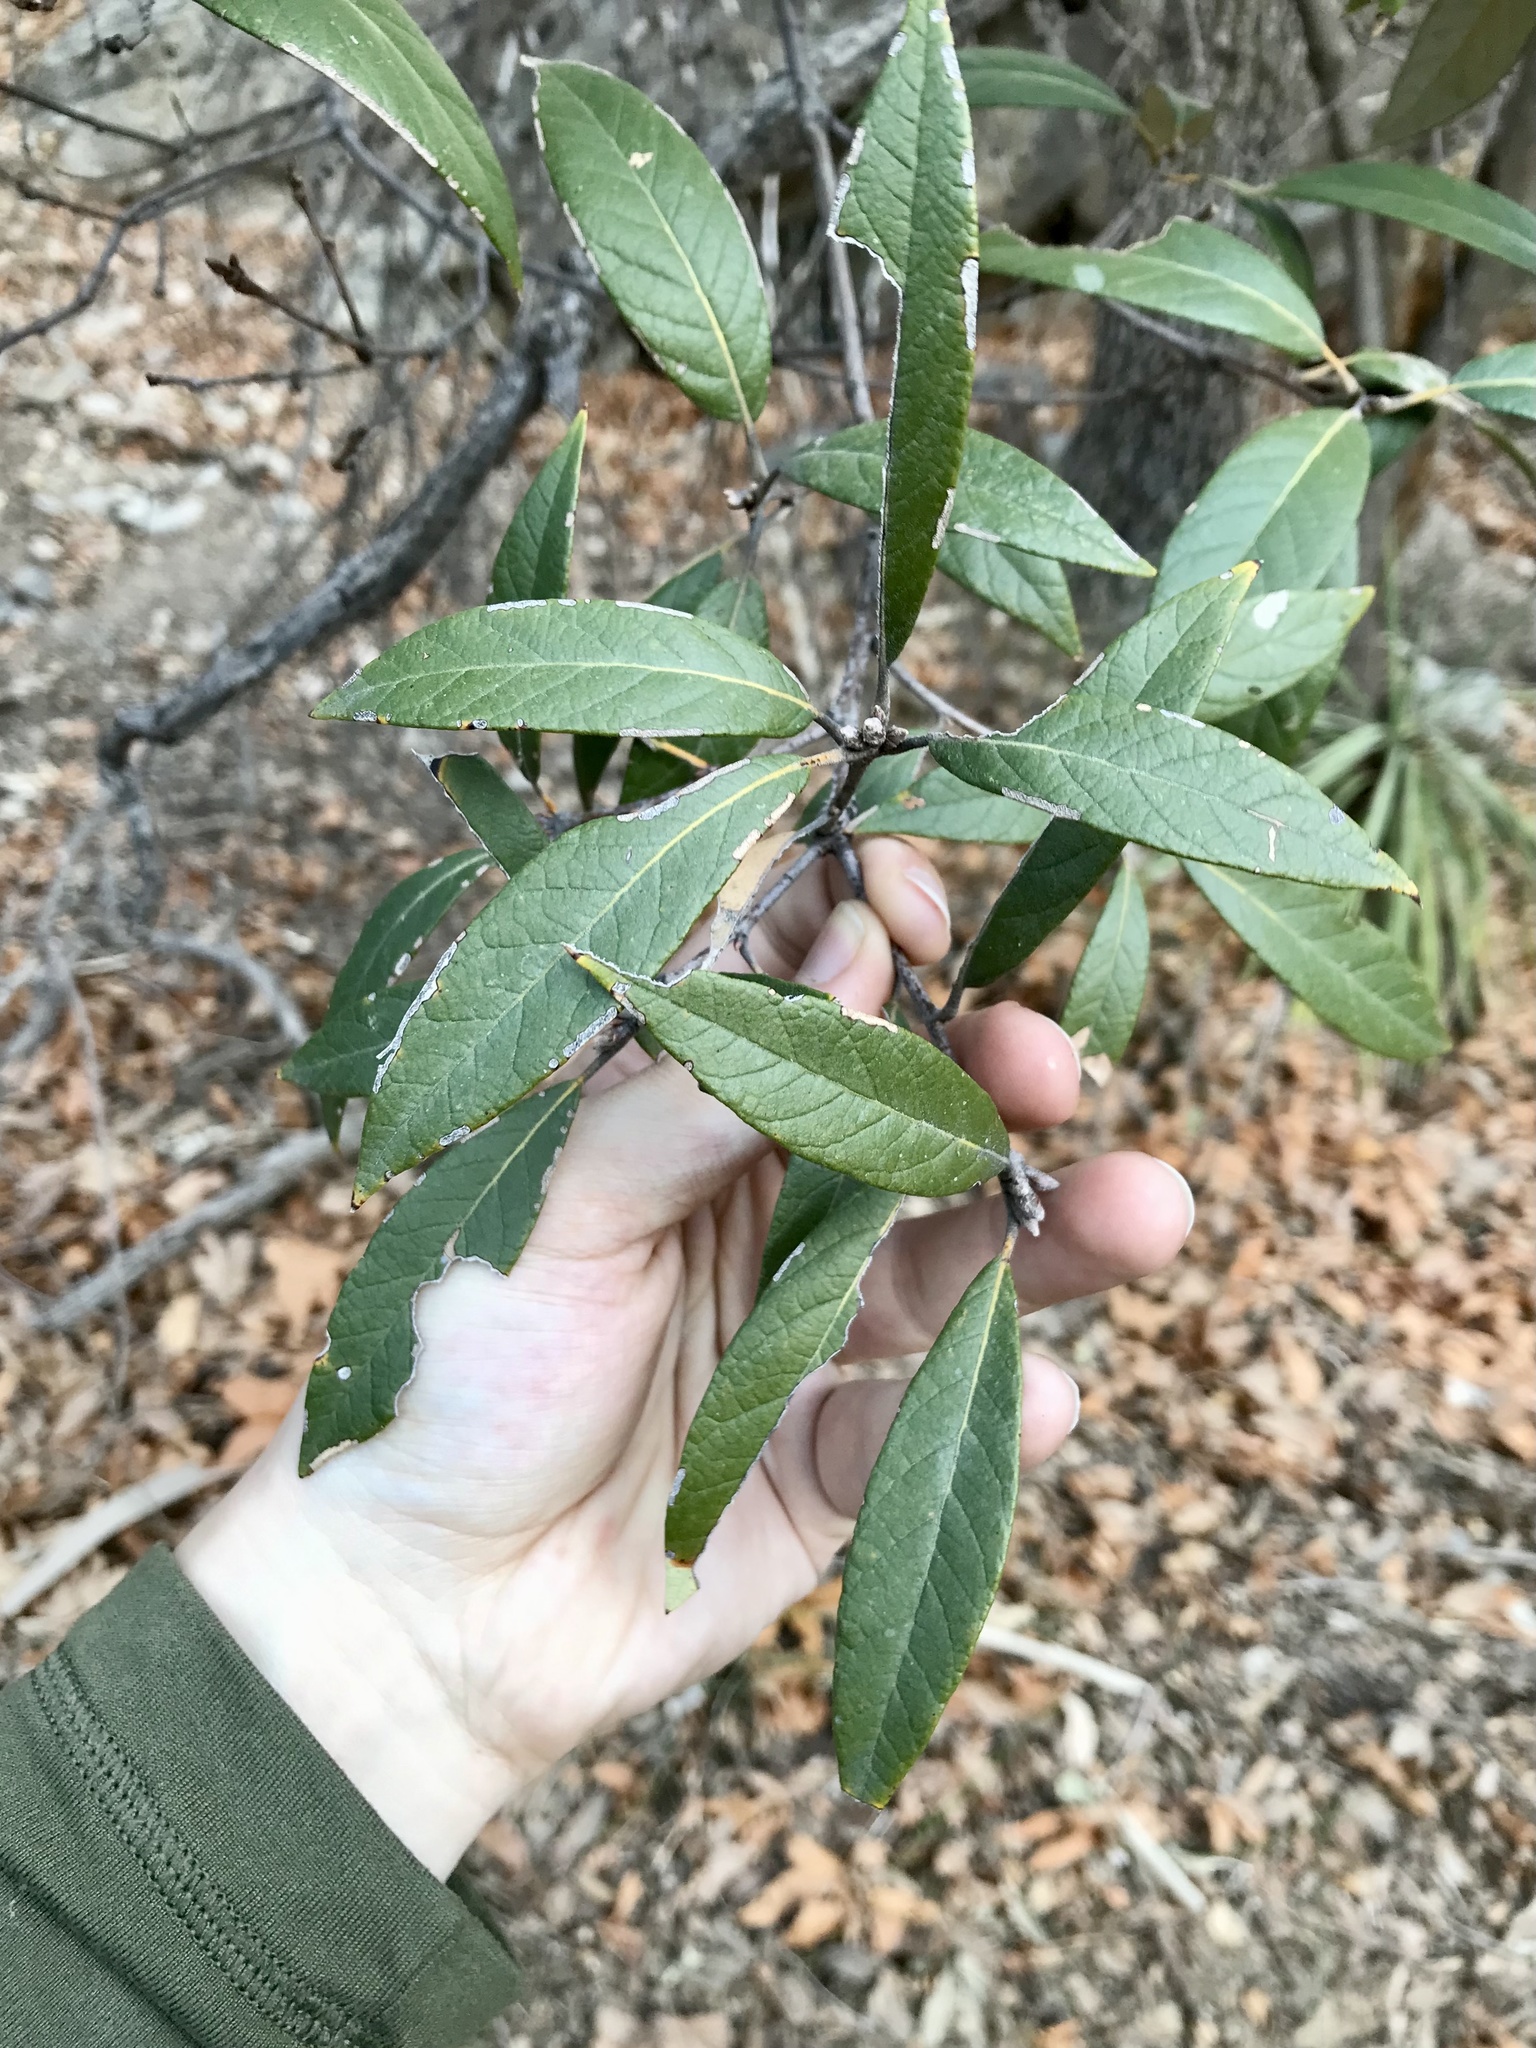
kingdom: Plantae
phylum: Tracheophyta
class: Magnoliopsida
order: Fagales
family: Fagaceae
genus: Quercus
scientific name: Quercus hypoleucoides
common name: Silverleaf oak
